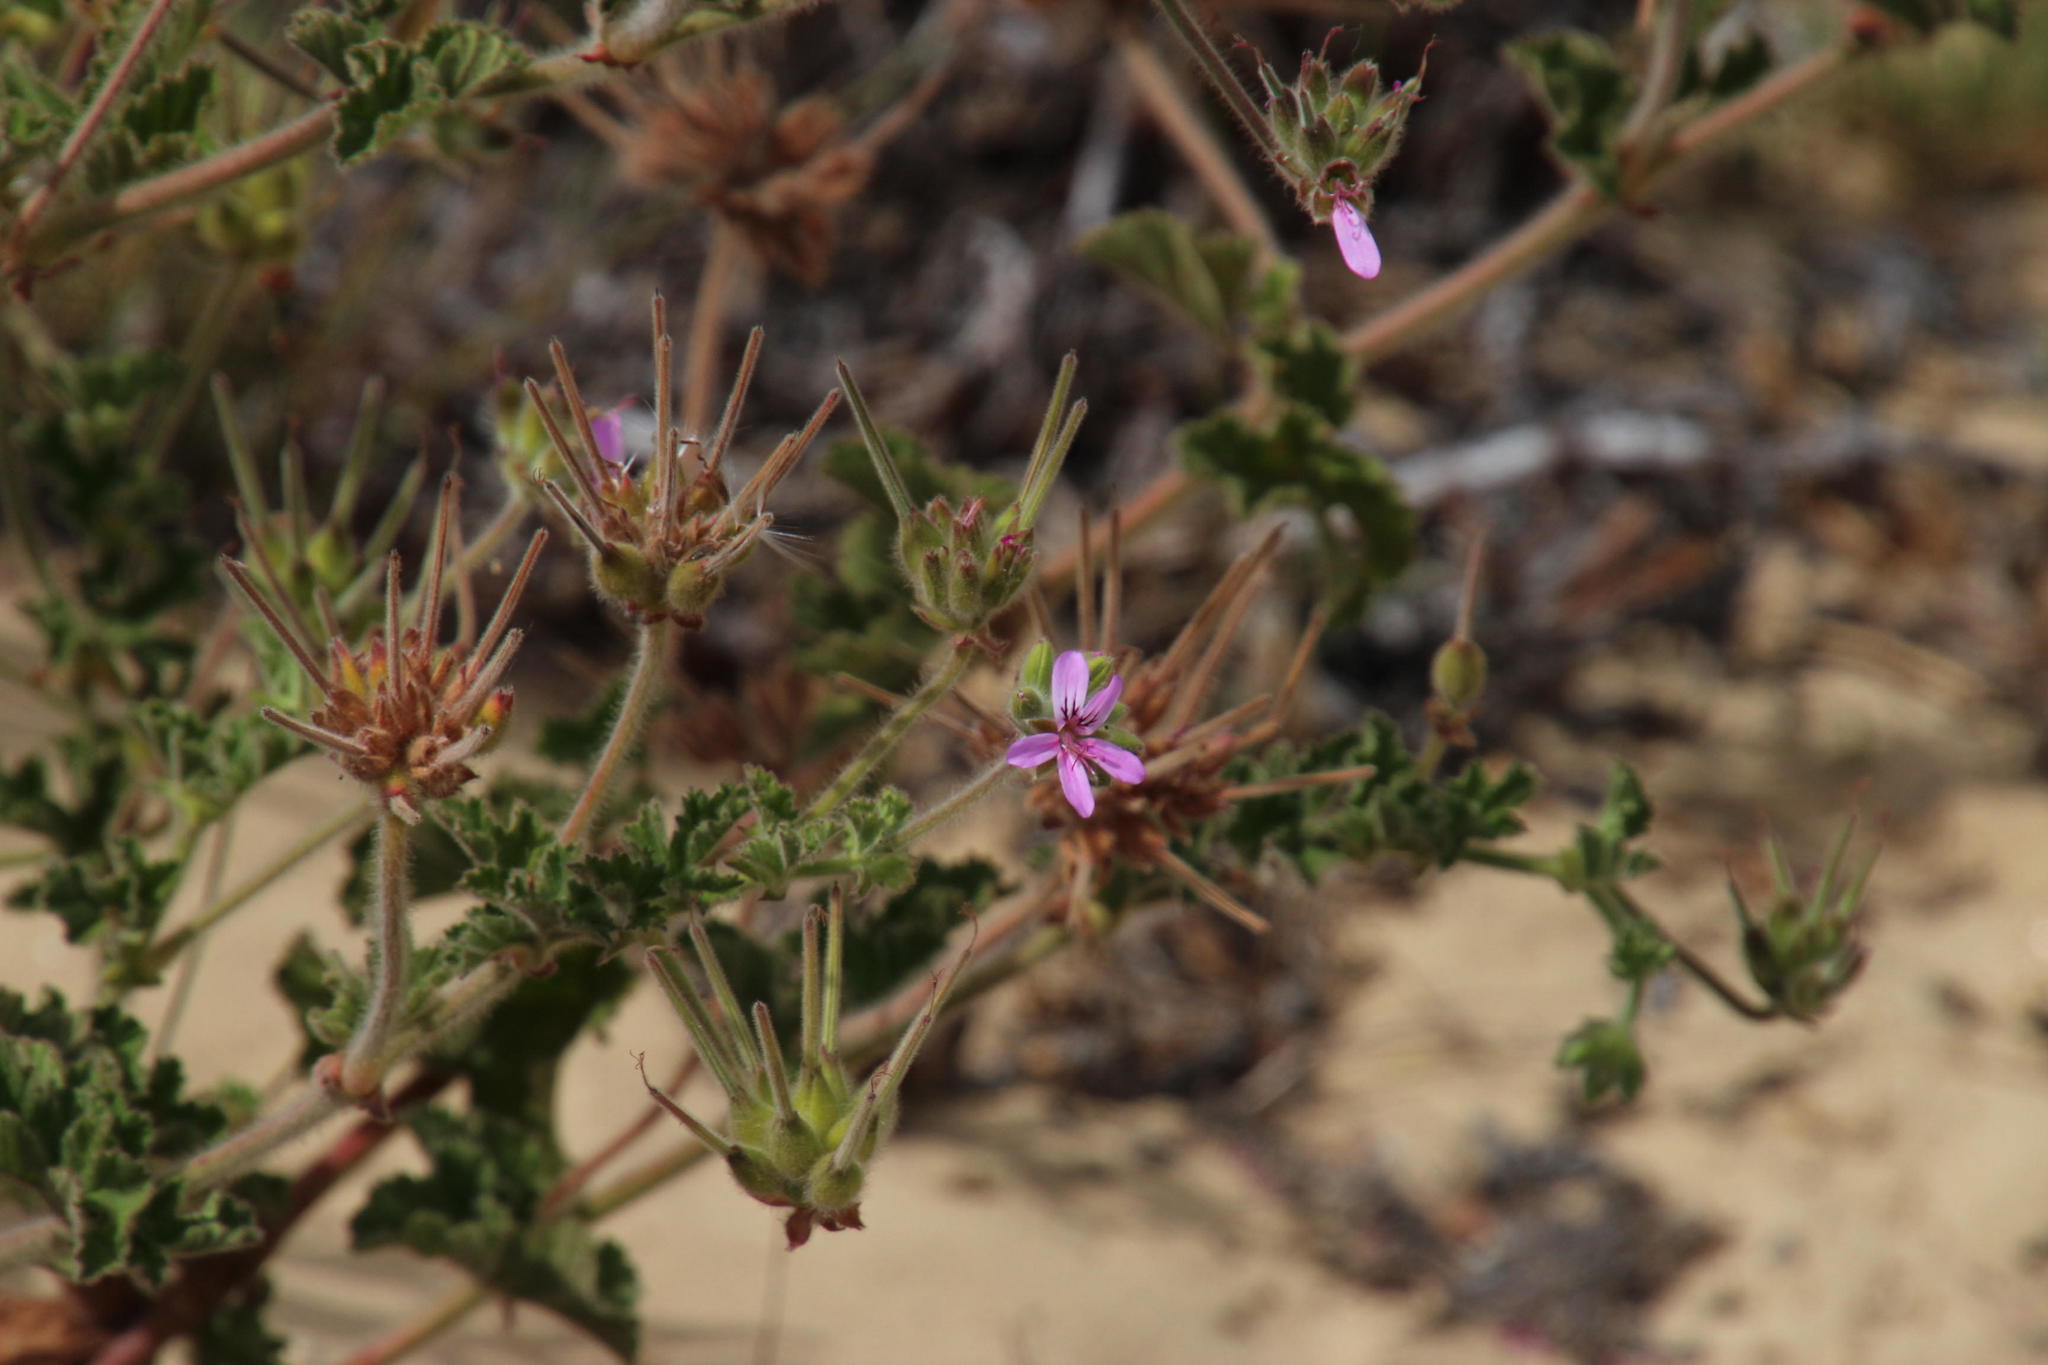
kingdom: Plantae
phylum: Tracheophyta
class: Magnoliopsida
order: Geraniales
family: Geraniaceae
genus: Pelargonium
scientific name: Pelargonium capitatum
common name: Rose scented geranium
